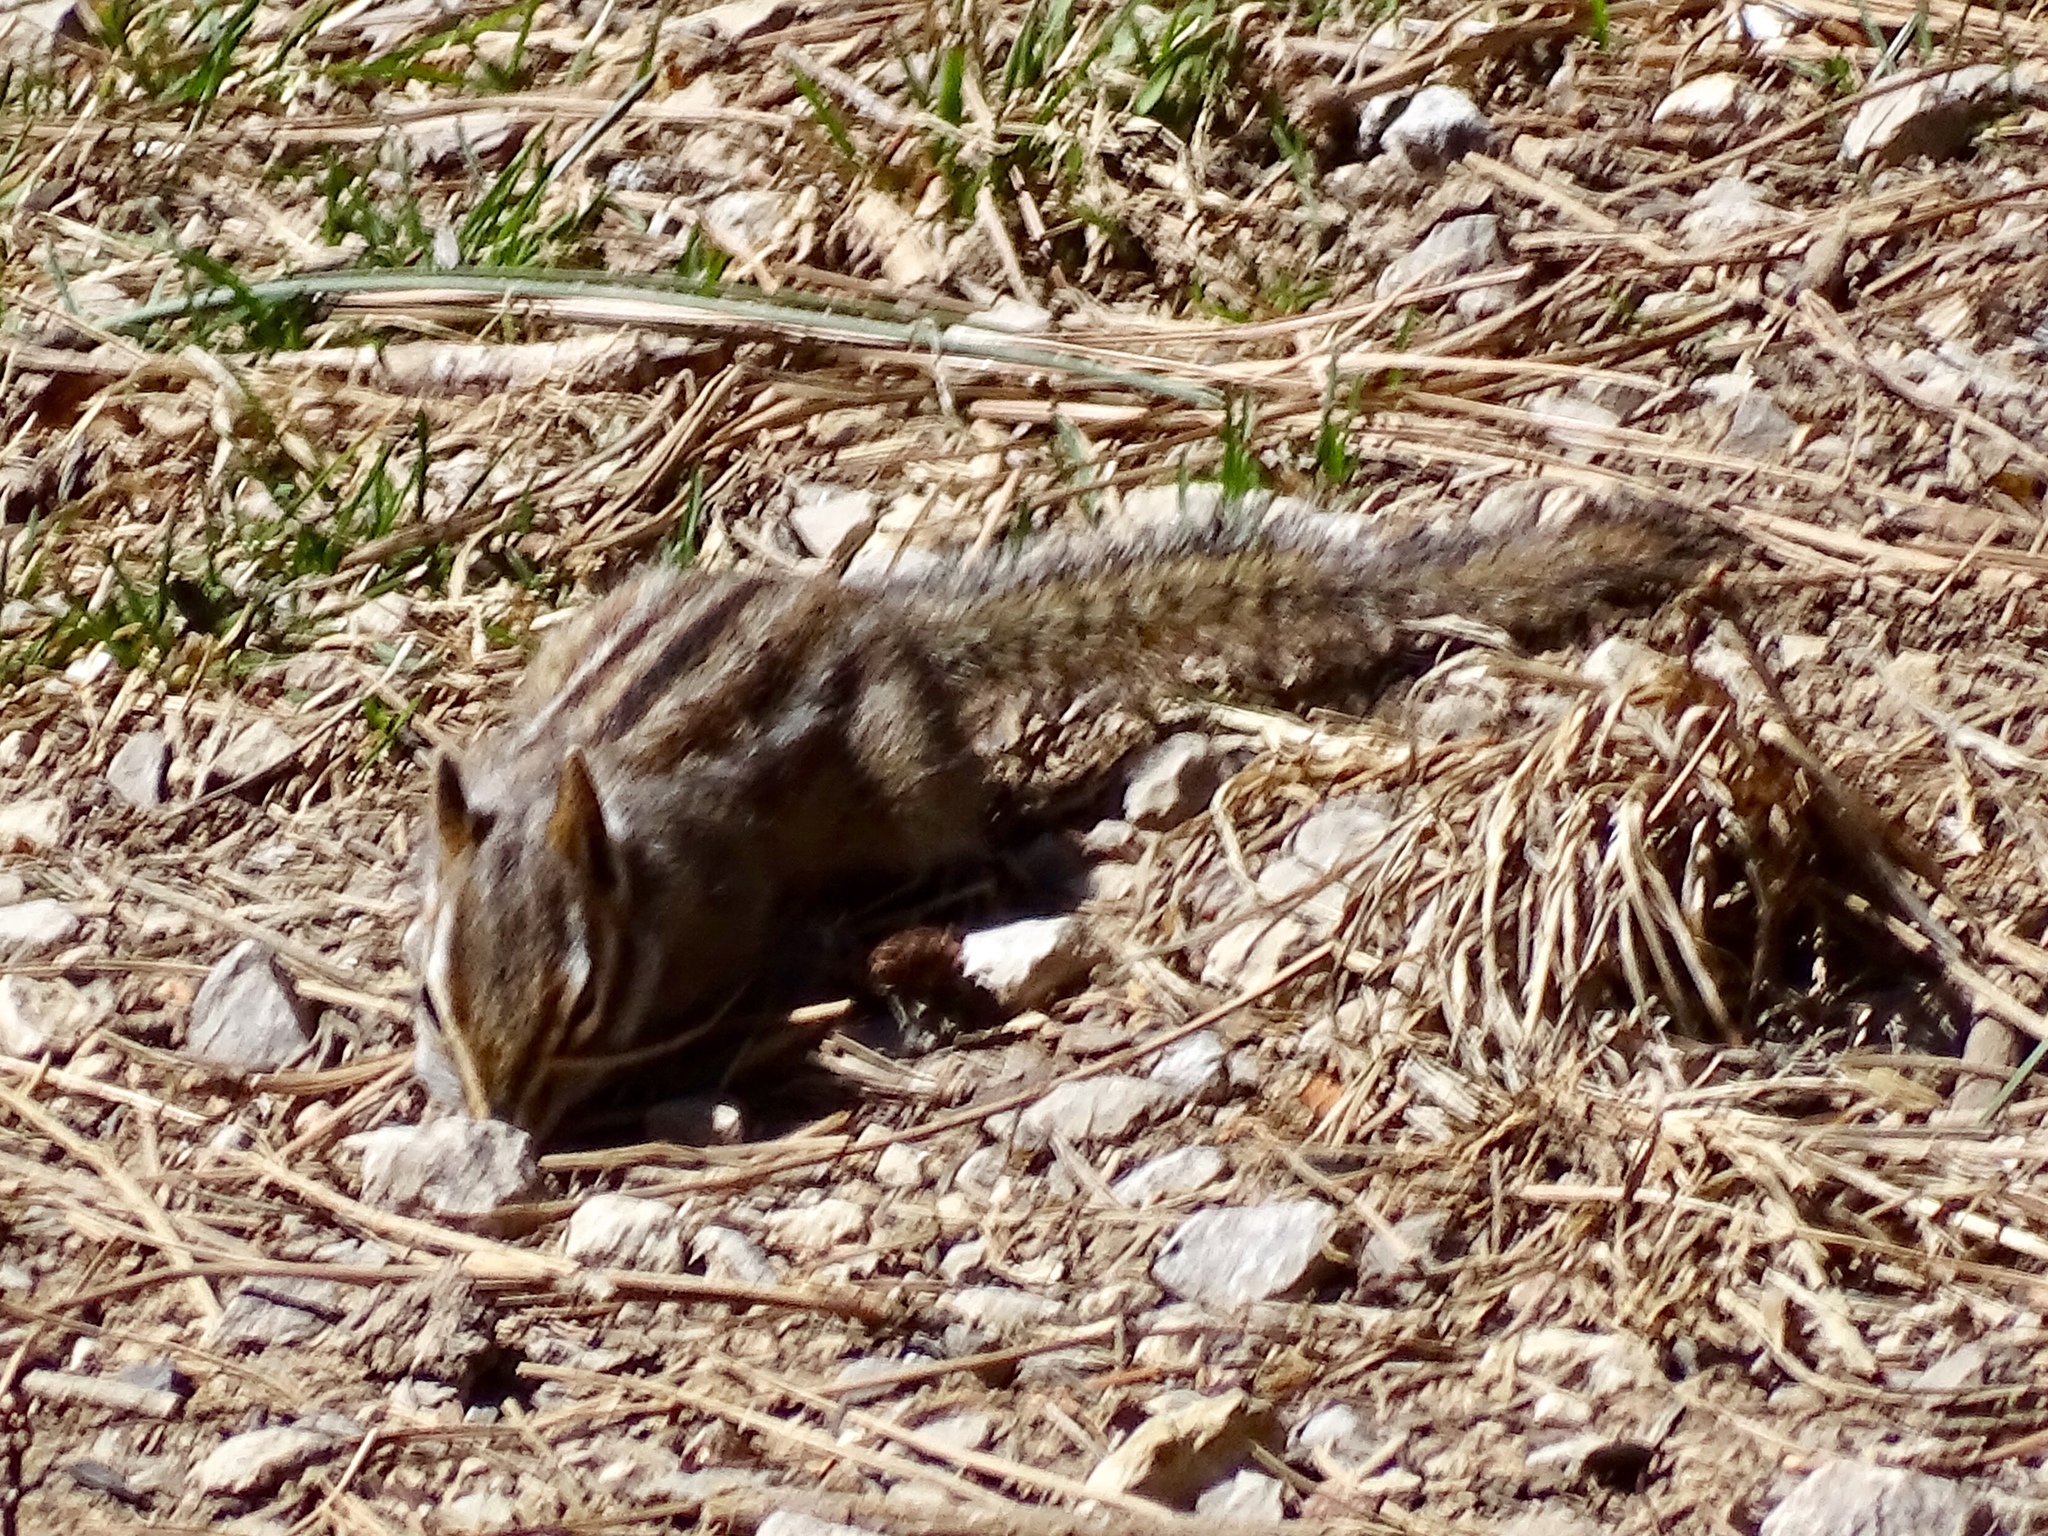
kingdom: Animalia
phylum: Chordata
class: Mammalia
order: Rodentia
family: Sciuridae
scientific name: Sciuridae
